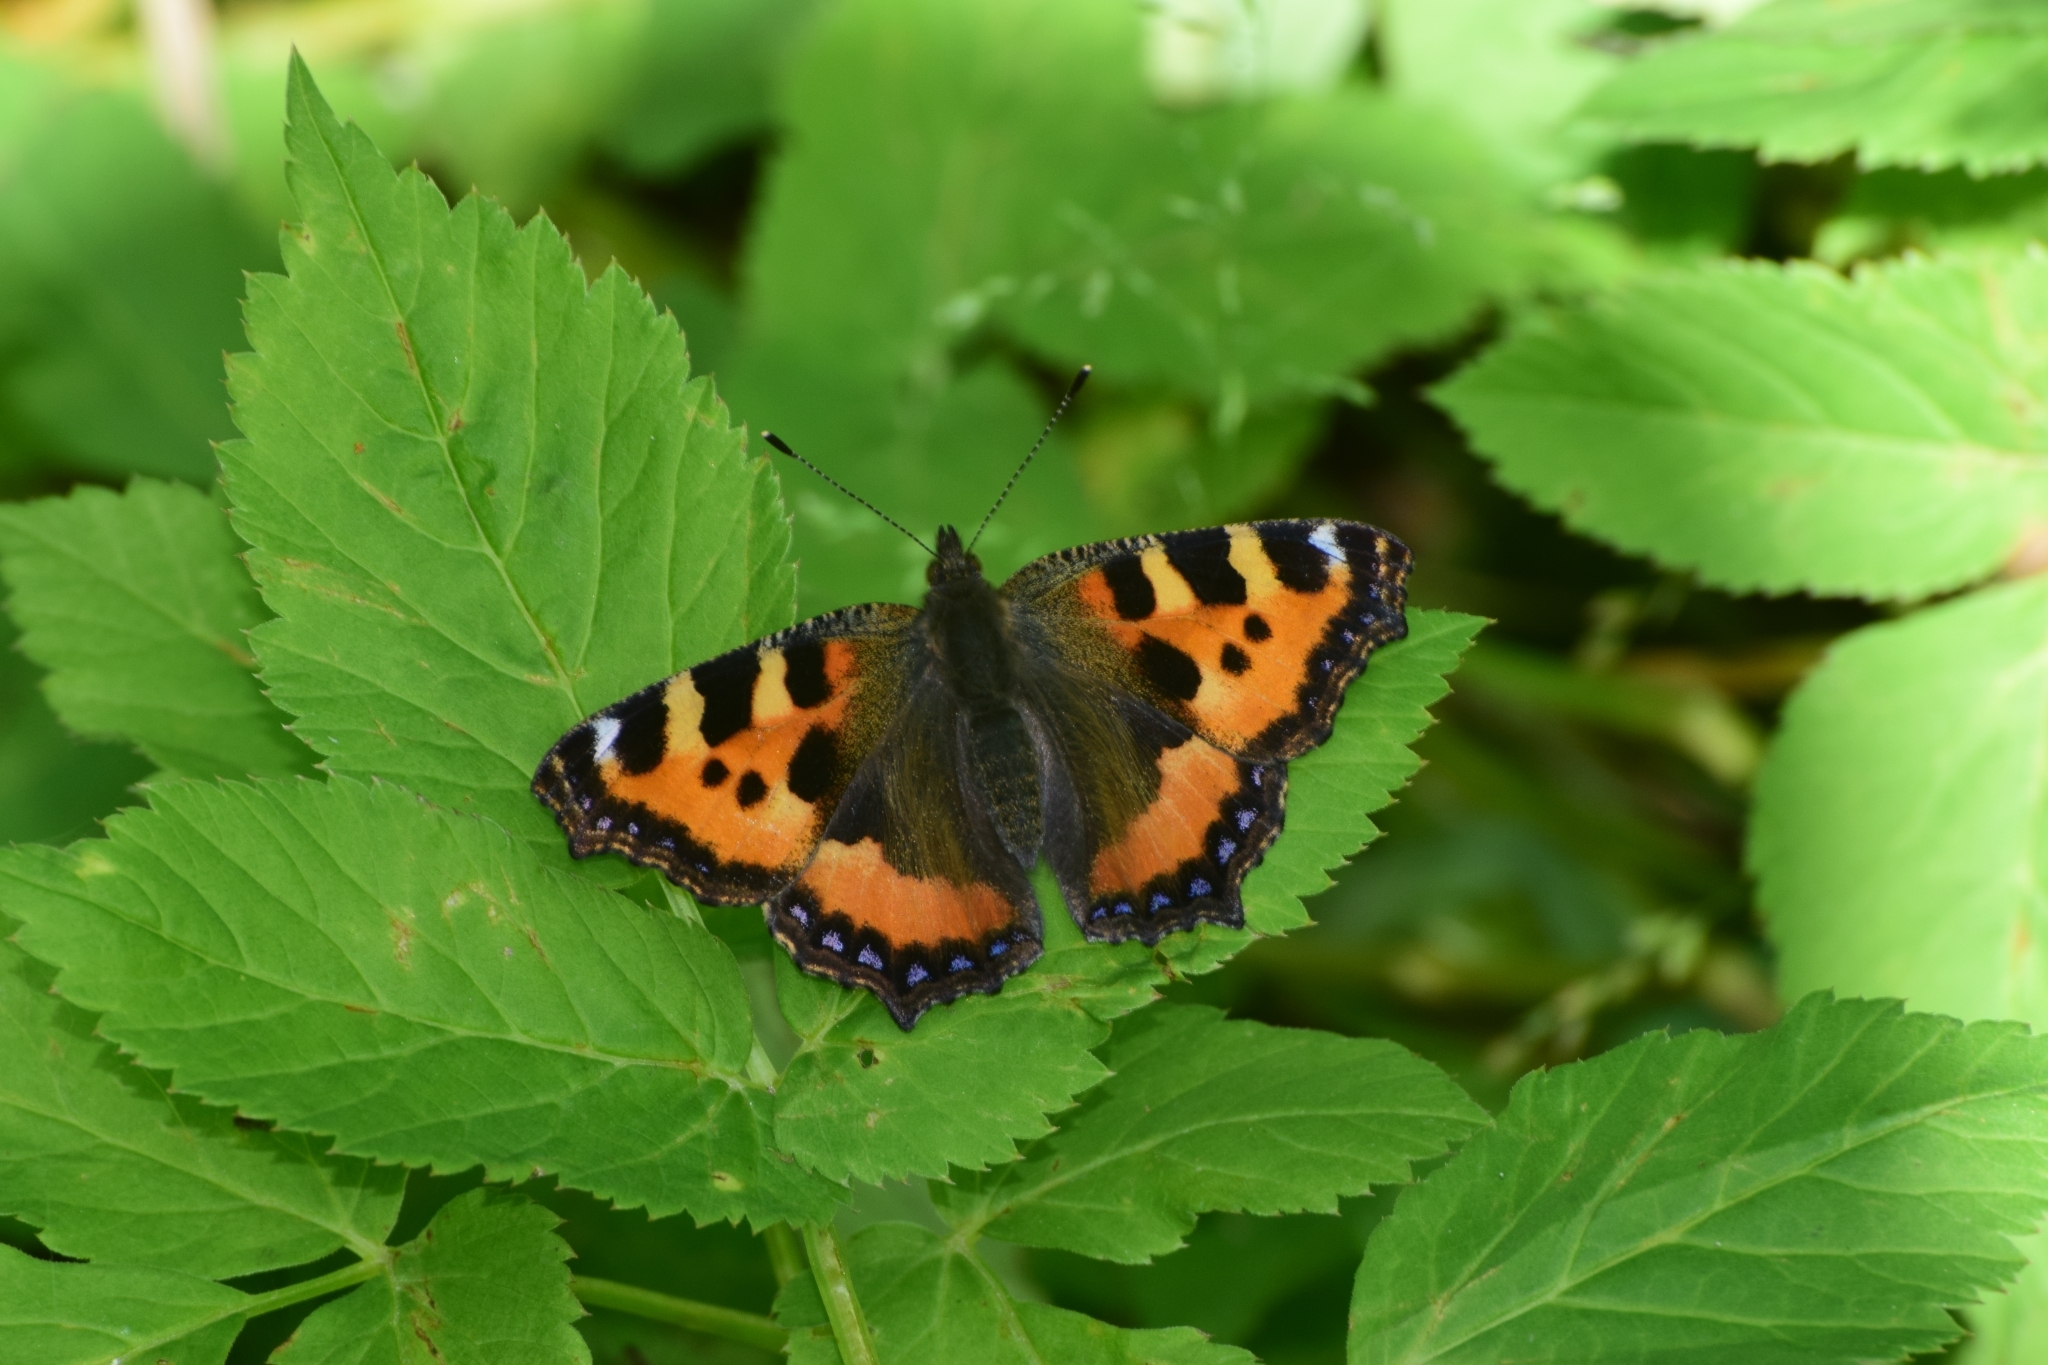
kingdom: Animalia
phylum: Arthropoda
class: Insecta
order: Lepidoptera
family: Nymphalidae
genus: Aglais
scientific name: Aglais urticae
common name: Small tortoiseshell
